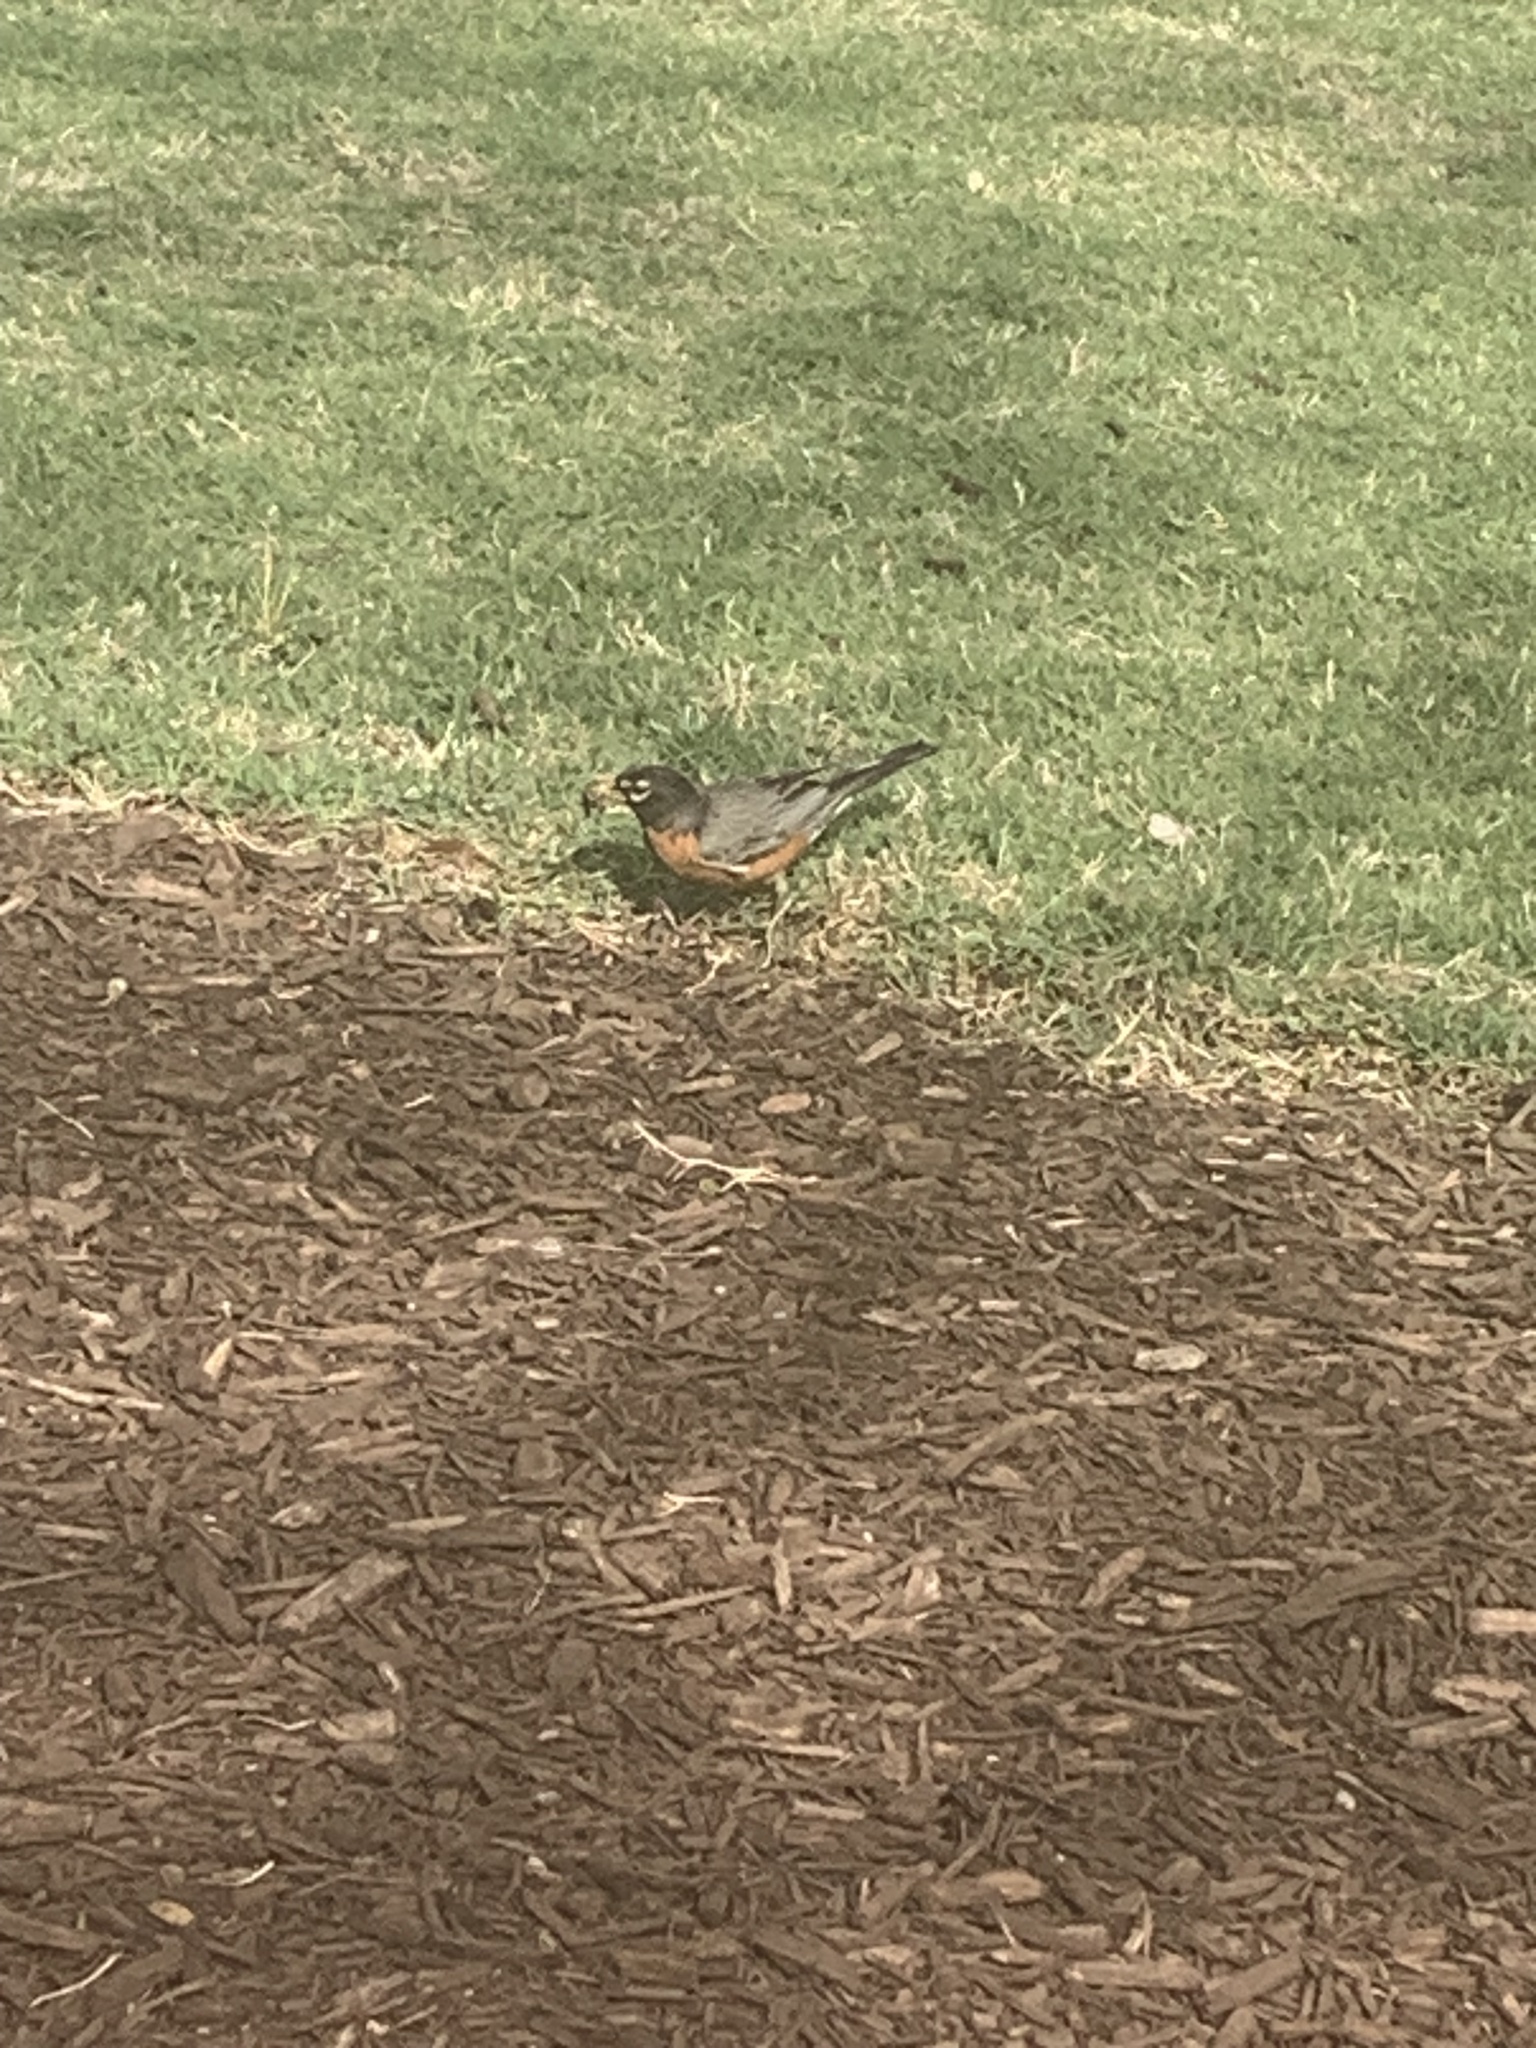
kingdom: Animalia
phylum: Chordata
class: Aves
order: Passeriformes
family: Turdidae
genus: Turdus
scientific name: Turdus migratorius
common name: American robin
